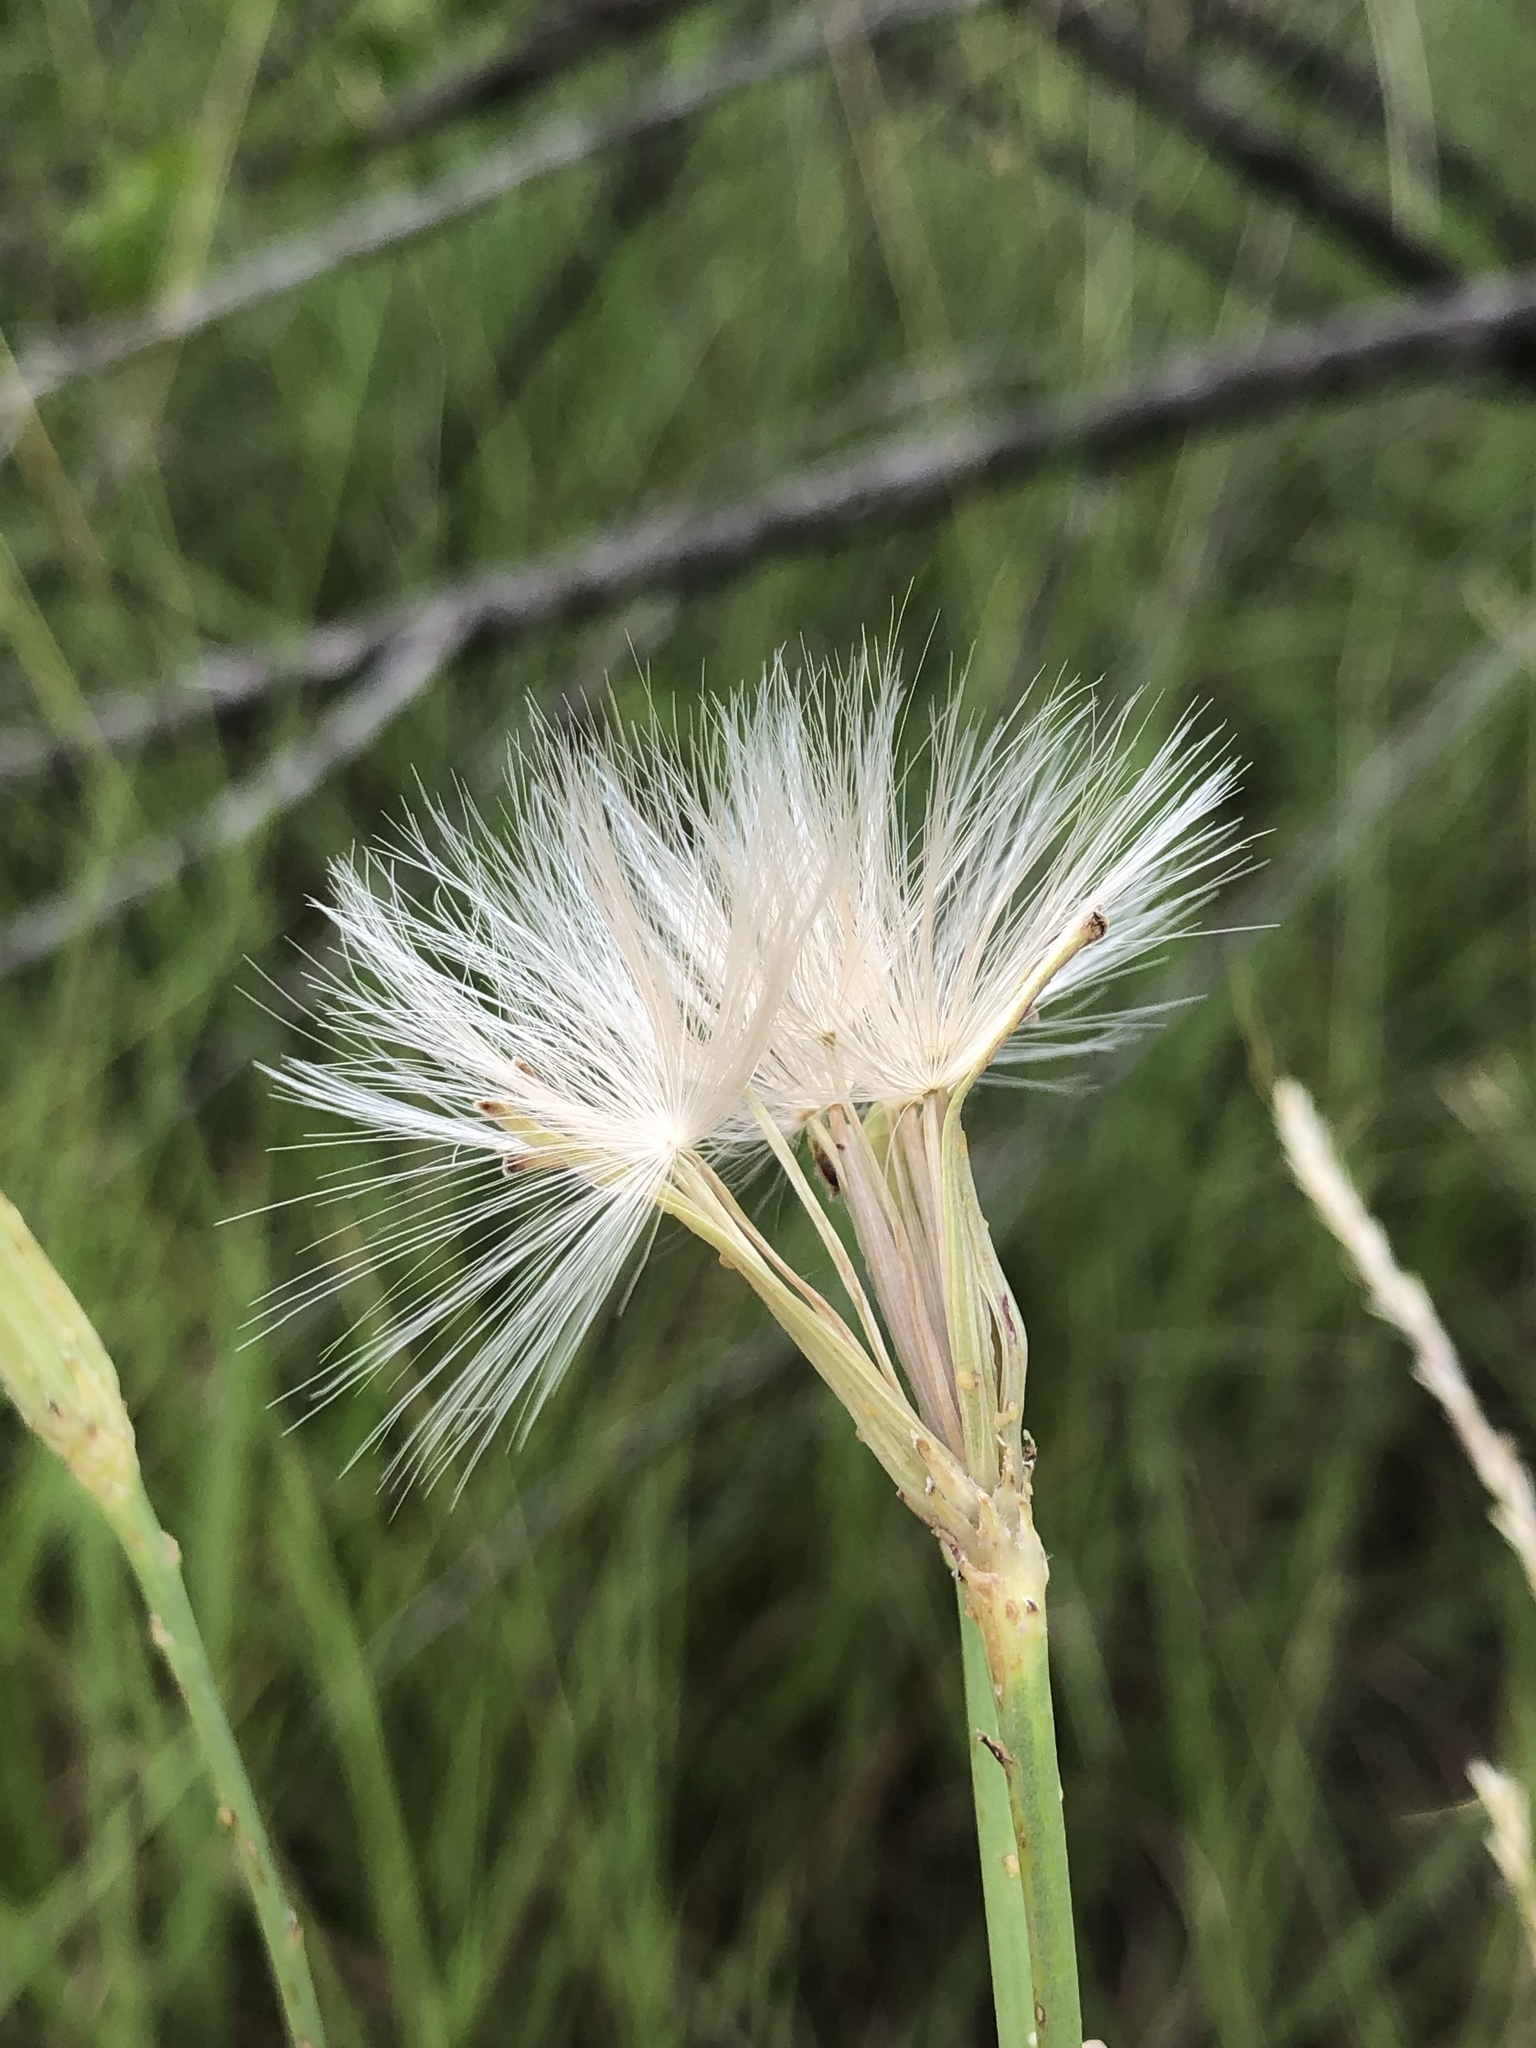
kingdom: Plantae
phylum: Tracheophyta
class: Magnoliopsida
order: Asterales
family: Asteraceae
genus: Lygodesmia
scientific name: Lygodesmia texana
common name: Texas skeleton-plant
